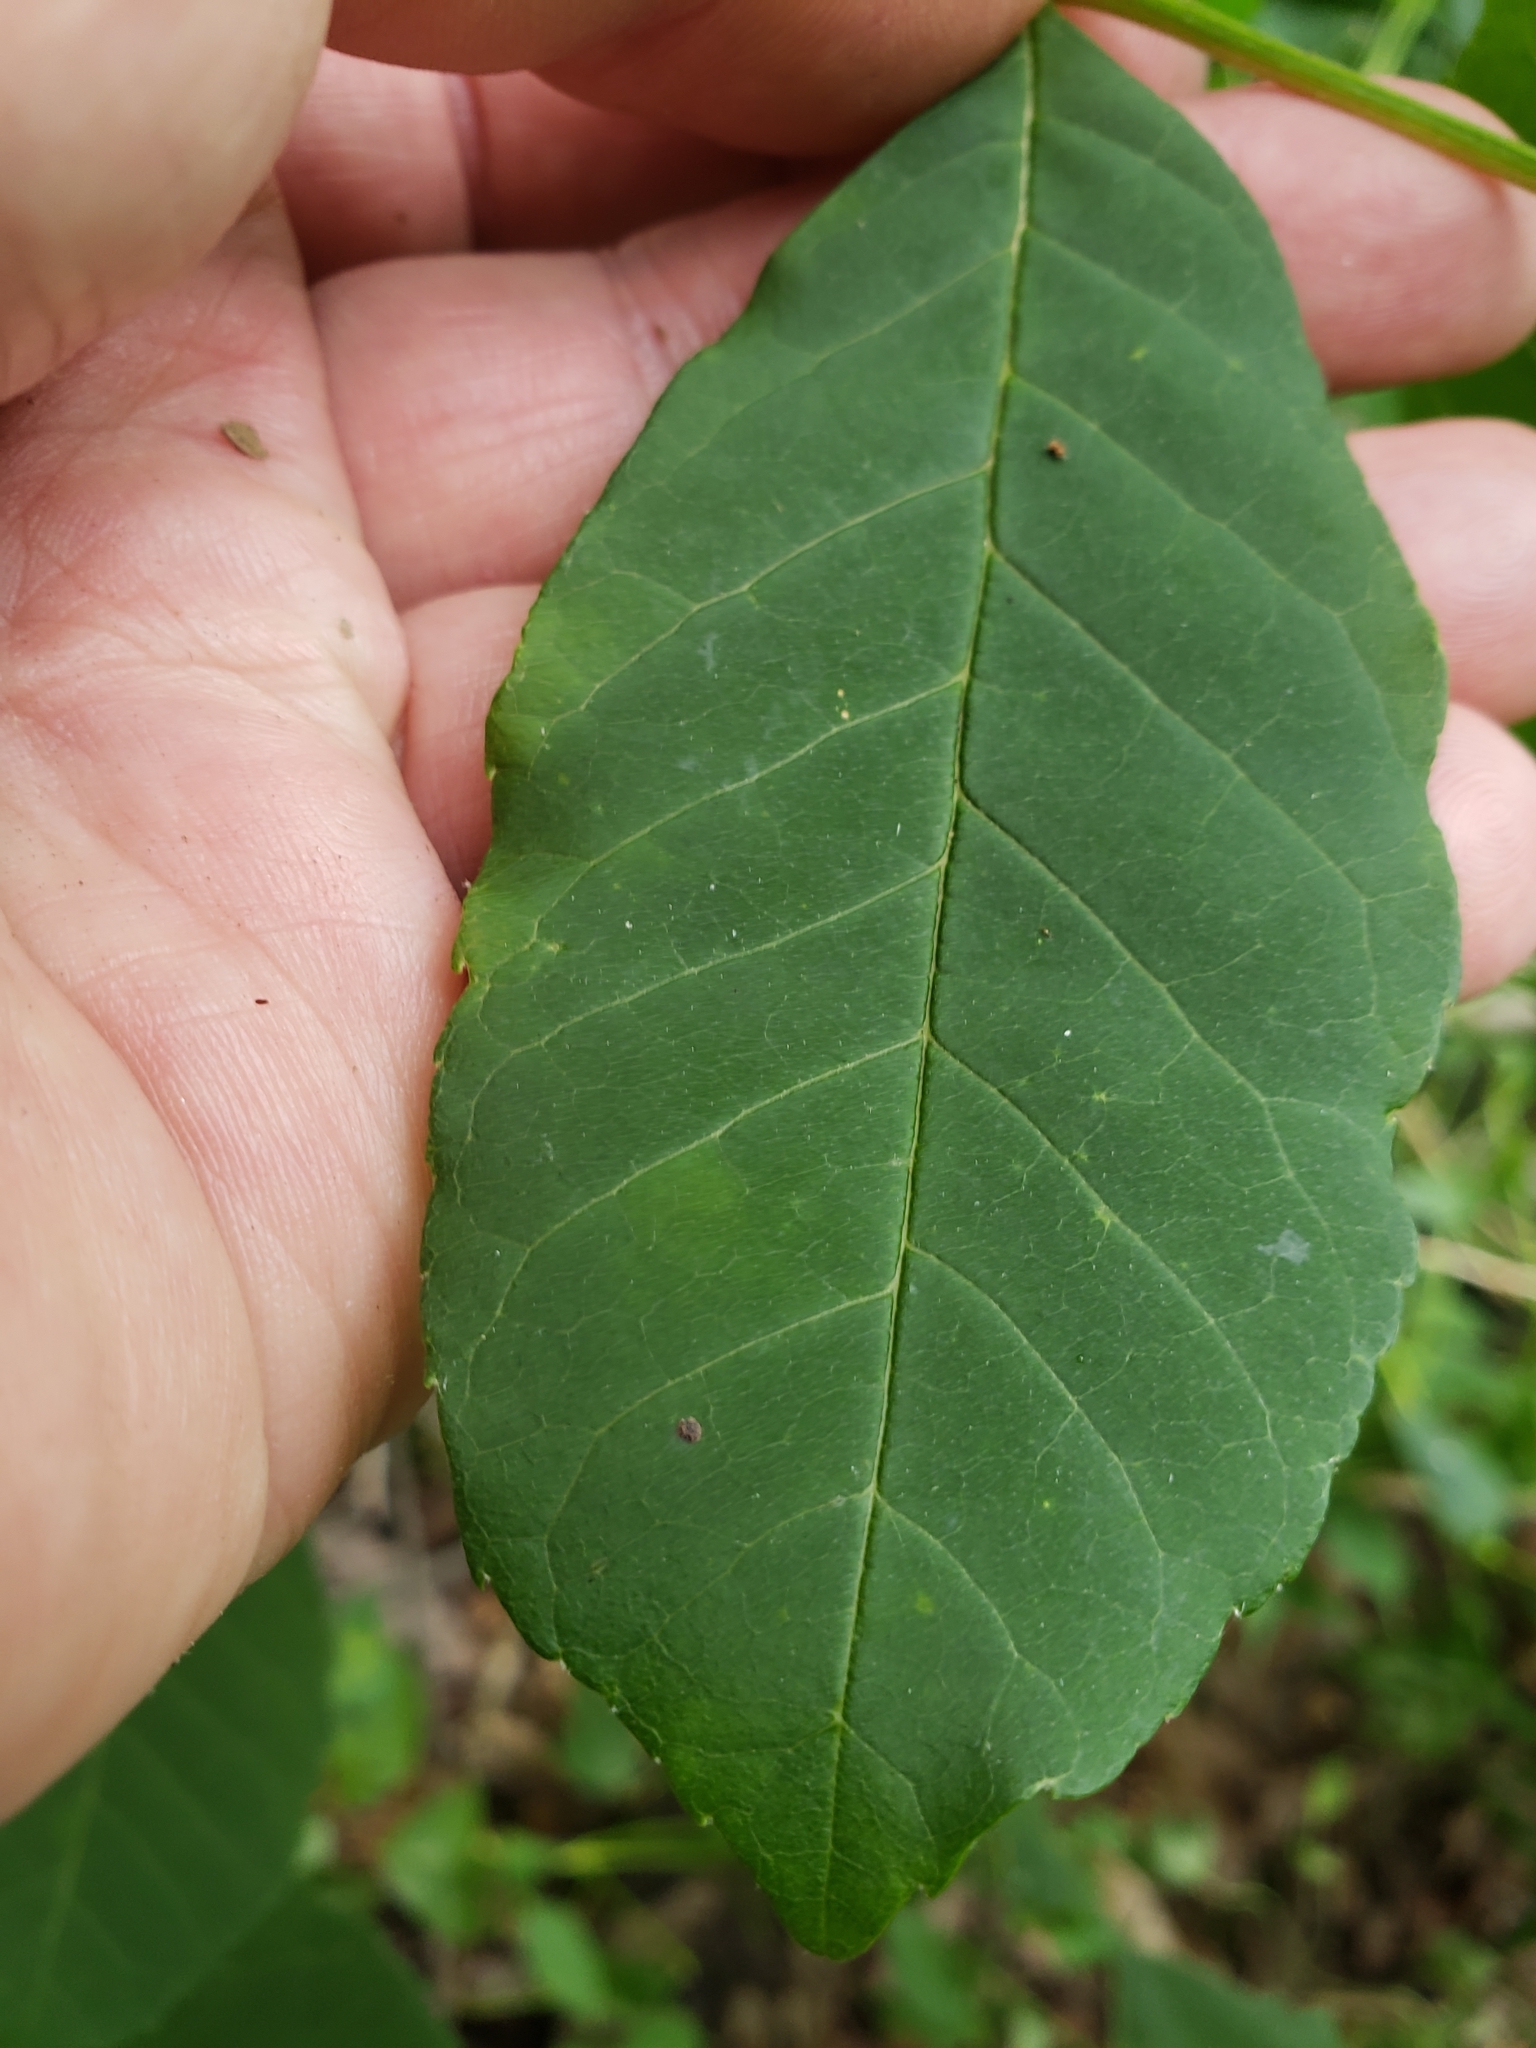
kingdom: Animalia
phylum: Arthropoda
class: Insecta
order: Lepidoptera
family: Erebidae
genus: Hyphantria
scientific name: Hyphantria cunea
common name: American white moth
